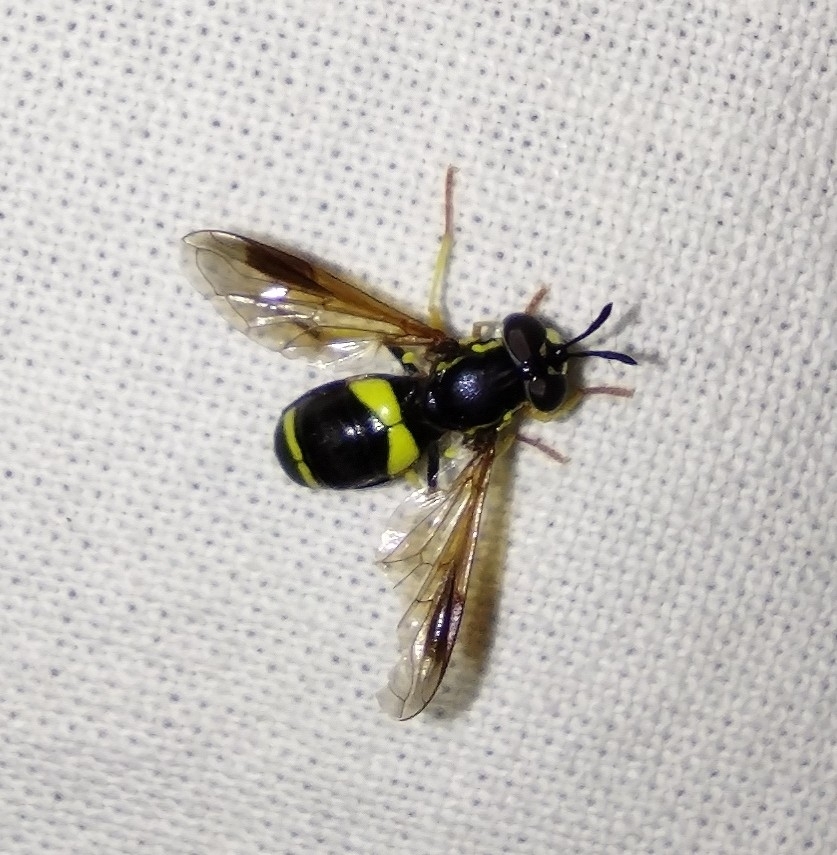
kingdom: Animalia
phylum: Arthropoda
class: Insecta
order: Diptera
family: Syrphidae
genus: Chrysotoxum
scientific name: Chrysotoxum bicincta
